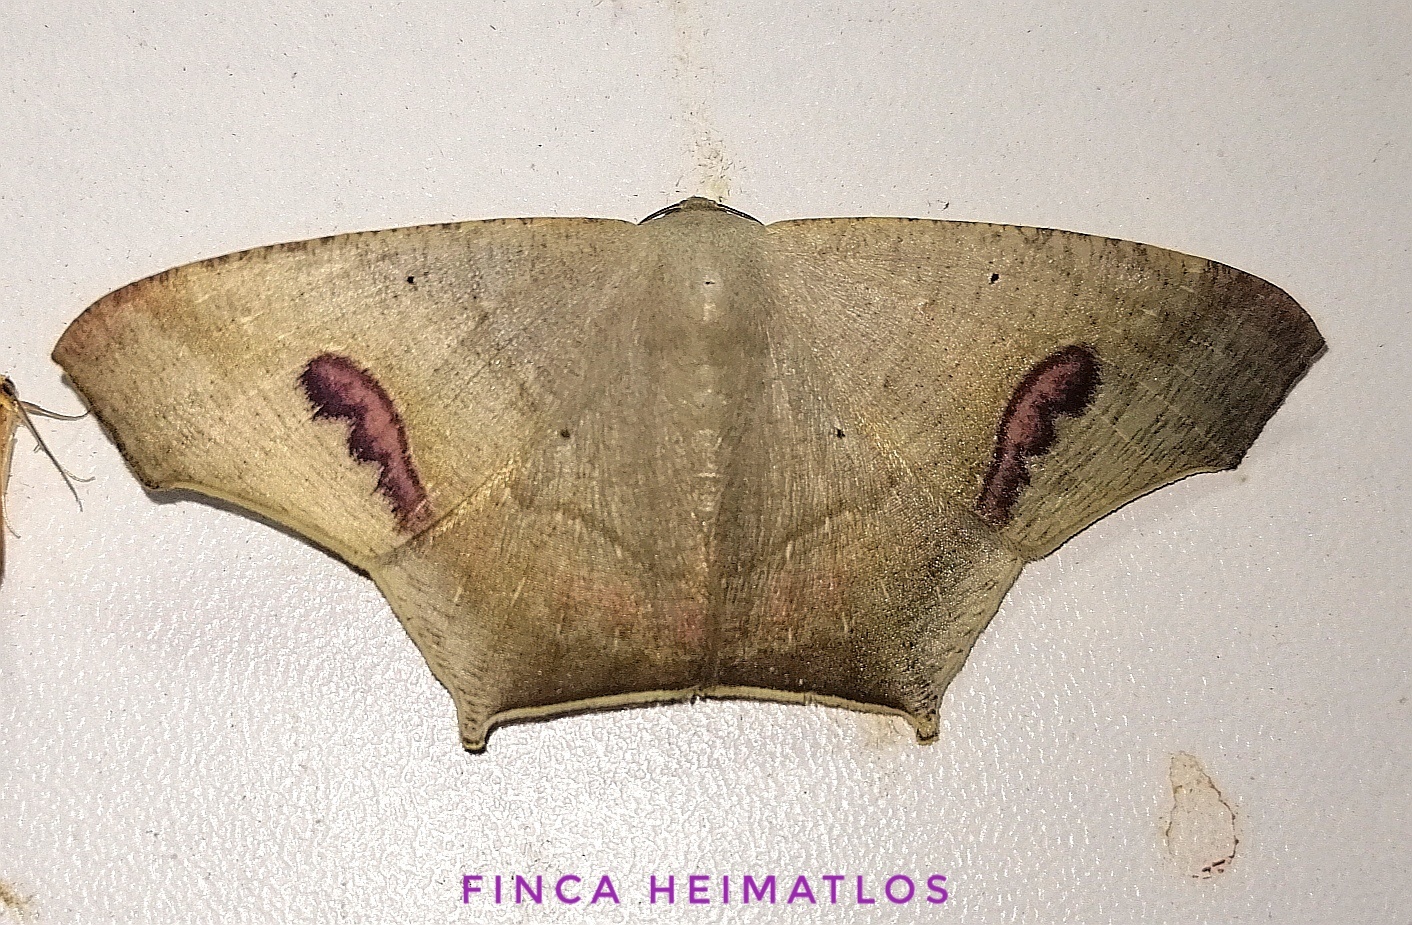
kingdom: Animalia
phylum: Arthropoda
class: Insecta
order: Lepidoptera
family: Geometridae
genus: Euclysia
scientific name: Euclysia columbipennis
